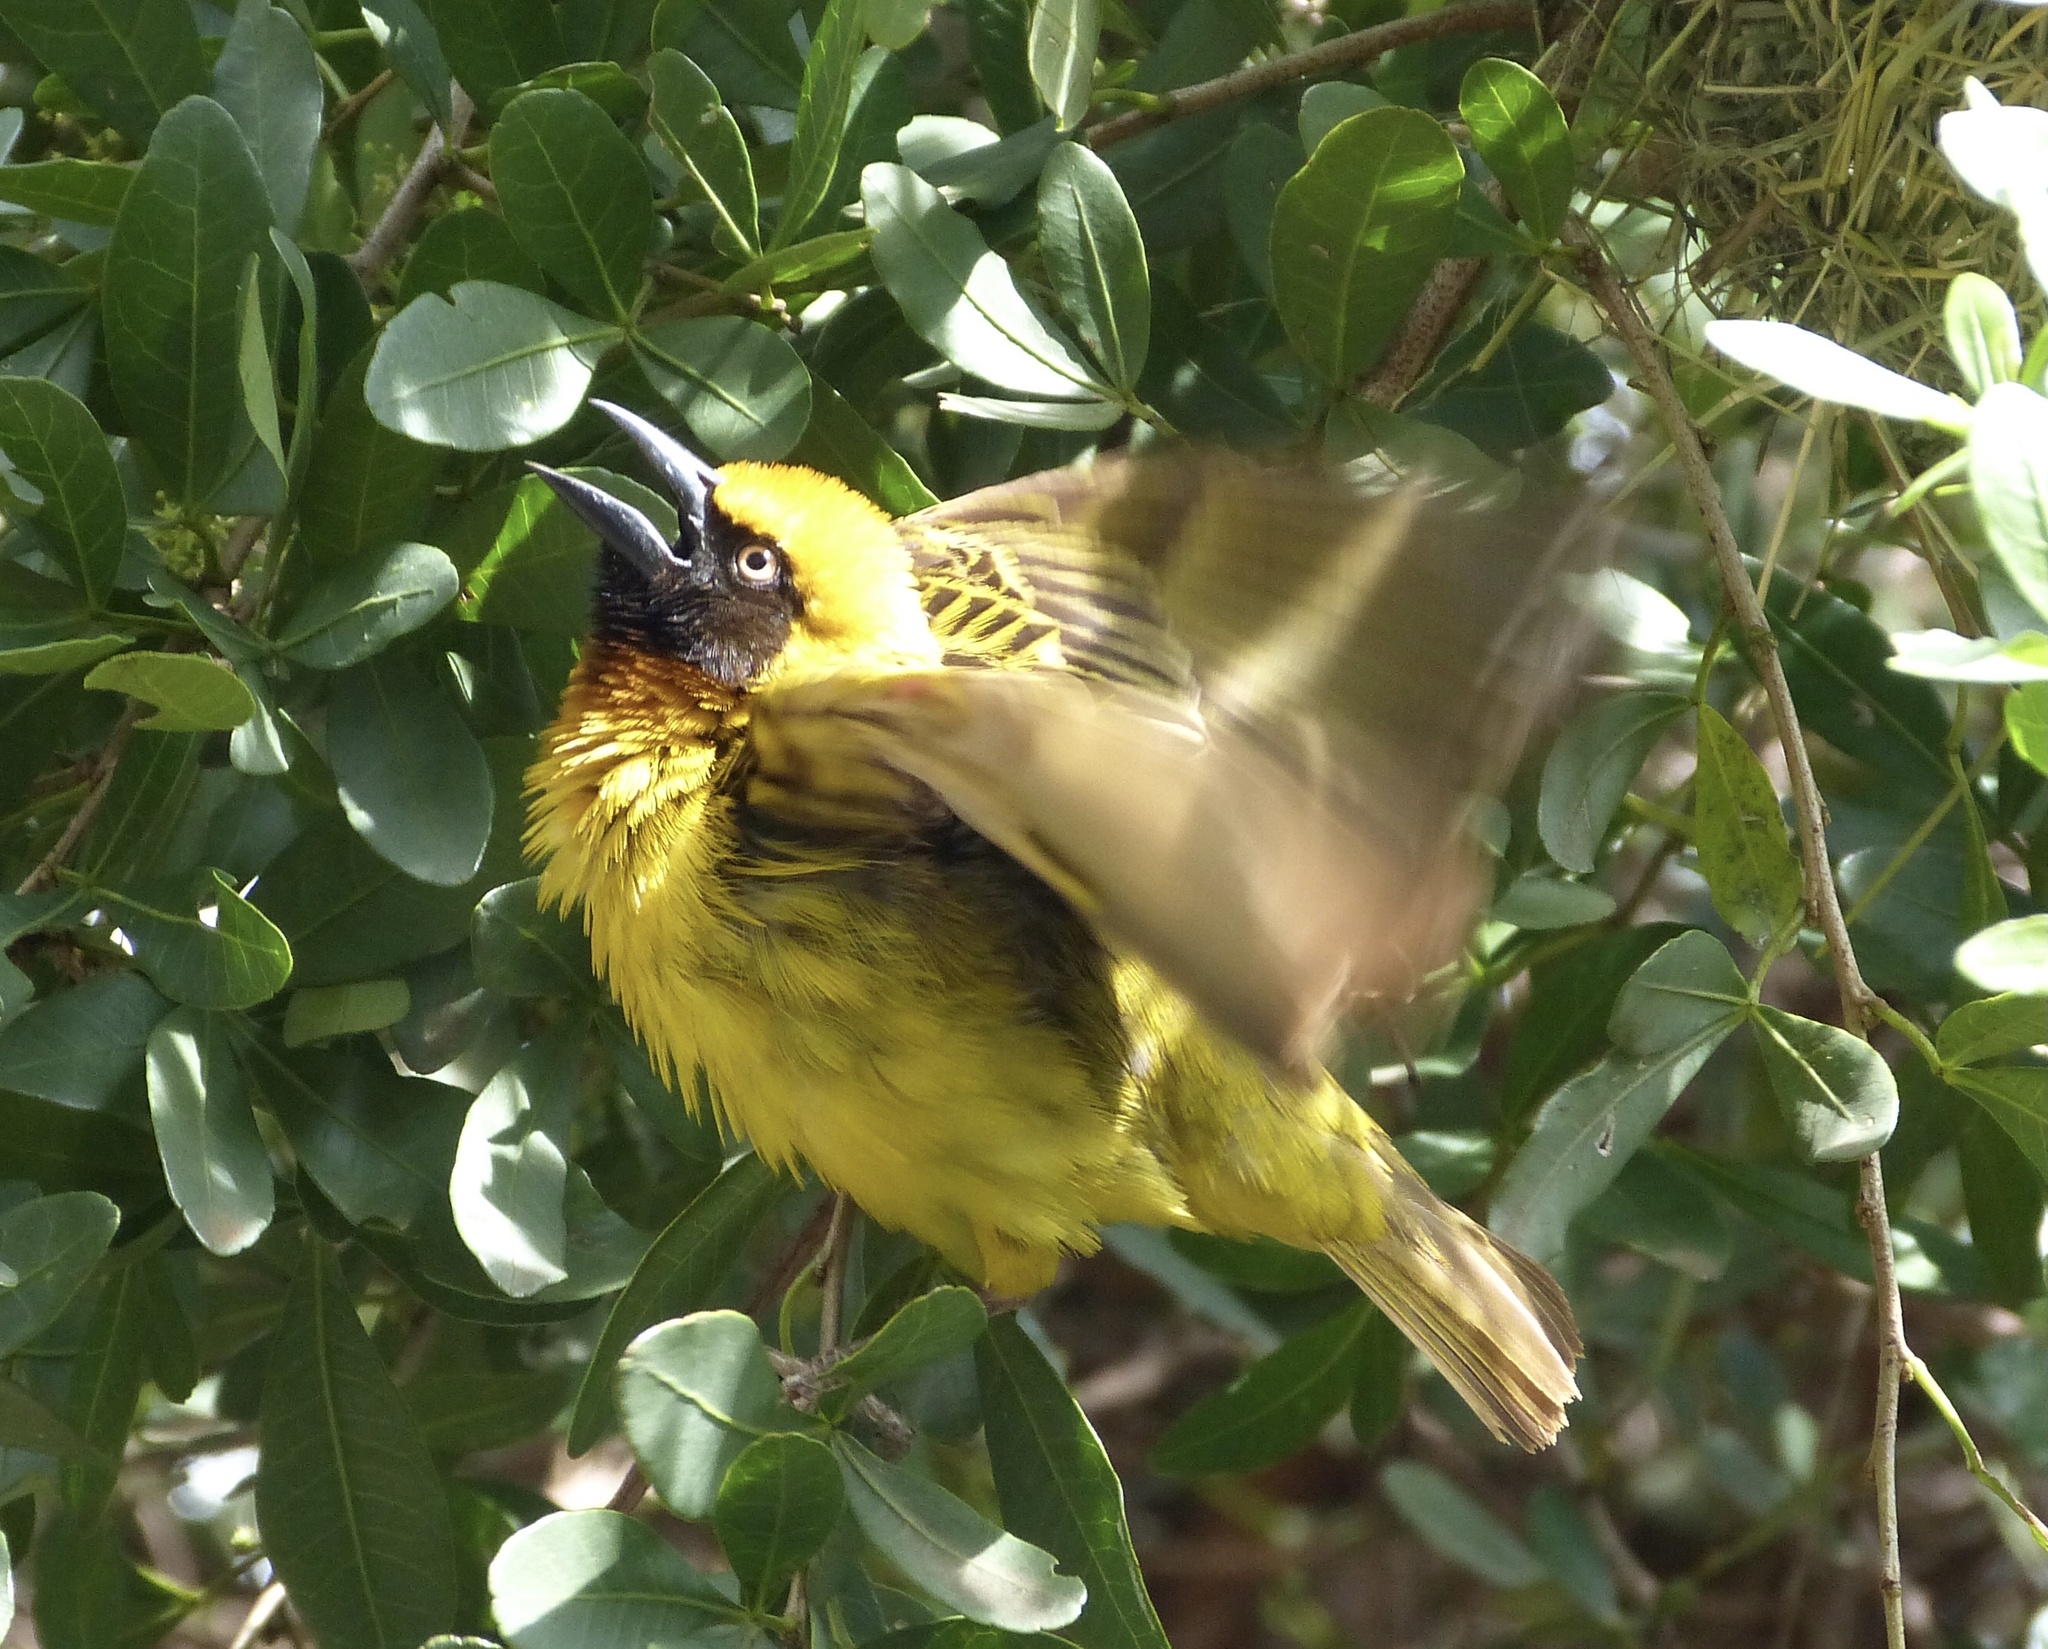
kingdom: Animalia
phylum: Chordata
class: Aves
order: Passeriformes
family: Ploceidae
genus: Ploceus
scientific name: Ploceus spekei
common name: Speke's weaver
